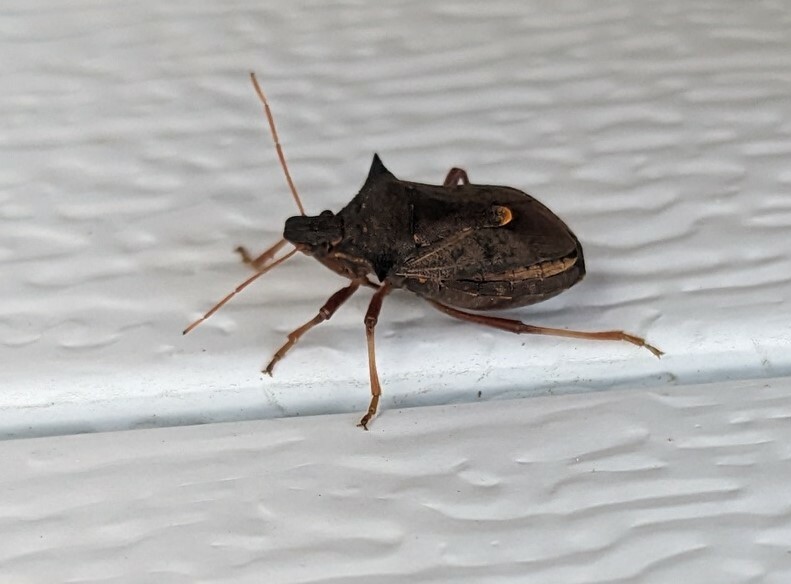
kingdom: Animalia
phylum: Arthropoda
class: Insecta
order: Hemiptera
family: Pentatomidae
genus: Picromerus
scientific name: Picromerus bidens
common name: Spiked shieldbug
